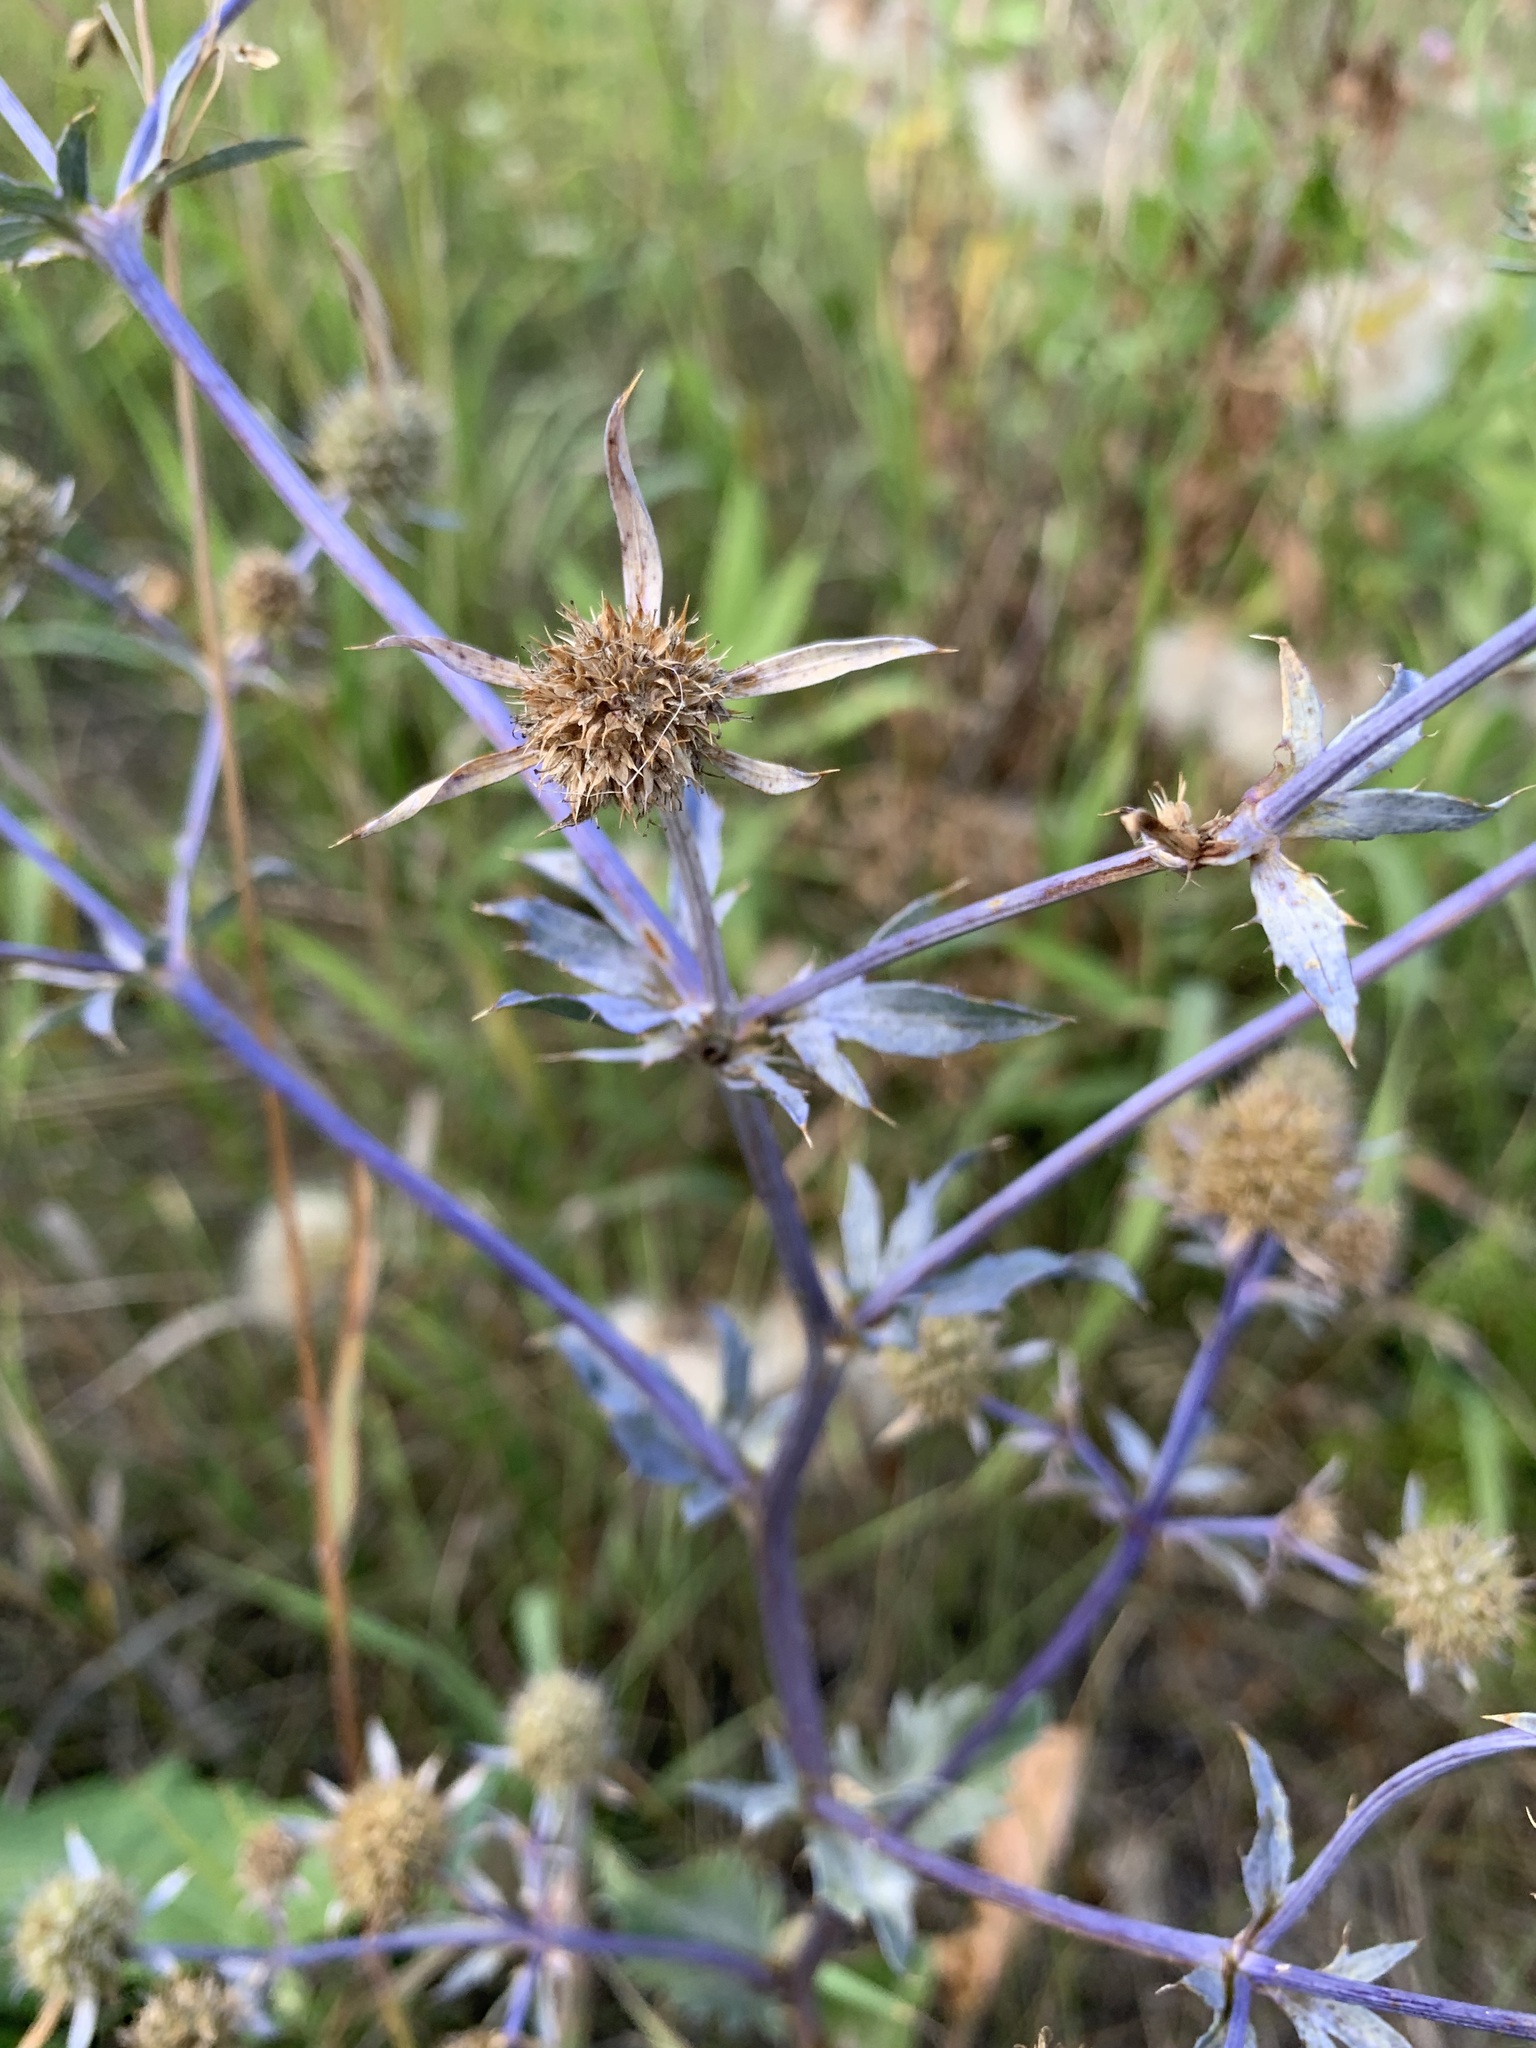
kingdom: Plantae
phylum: Tracheophyta
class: Magnoliopsida
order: Apiales
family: Apiaceae
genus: Eryngium
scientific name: Eryngium planum
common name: Blue eryngo
